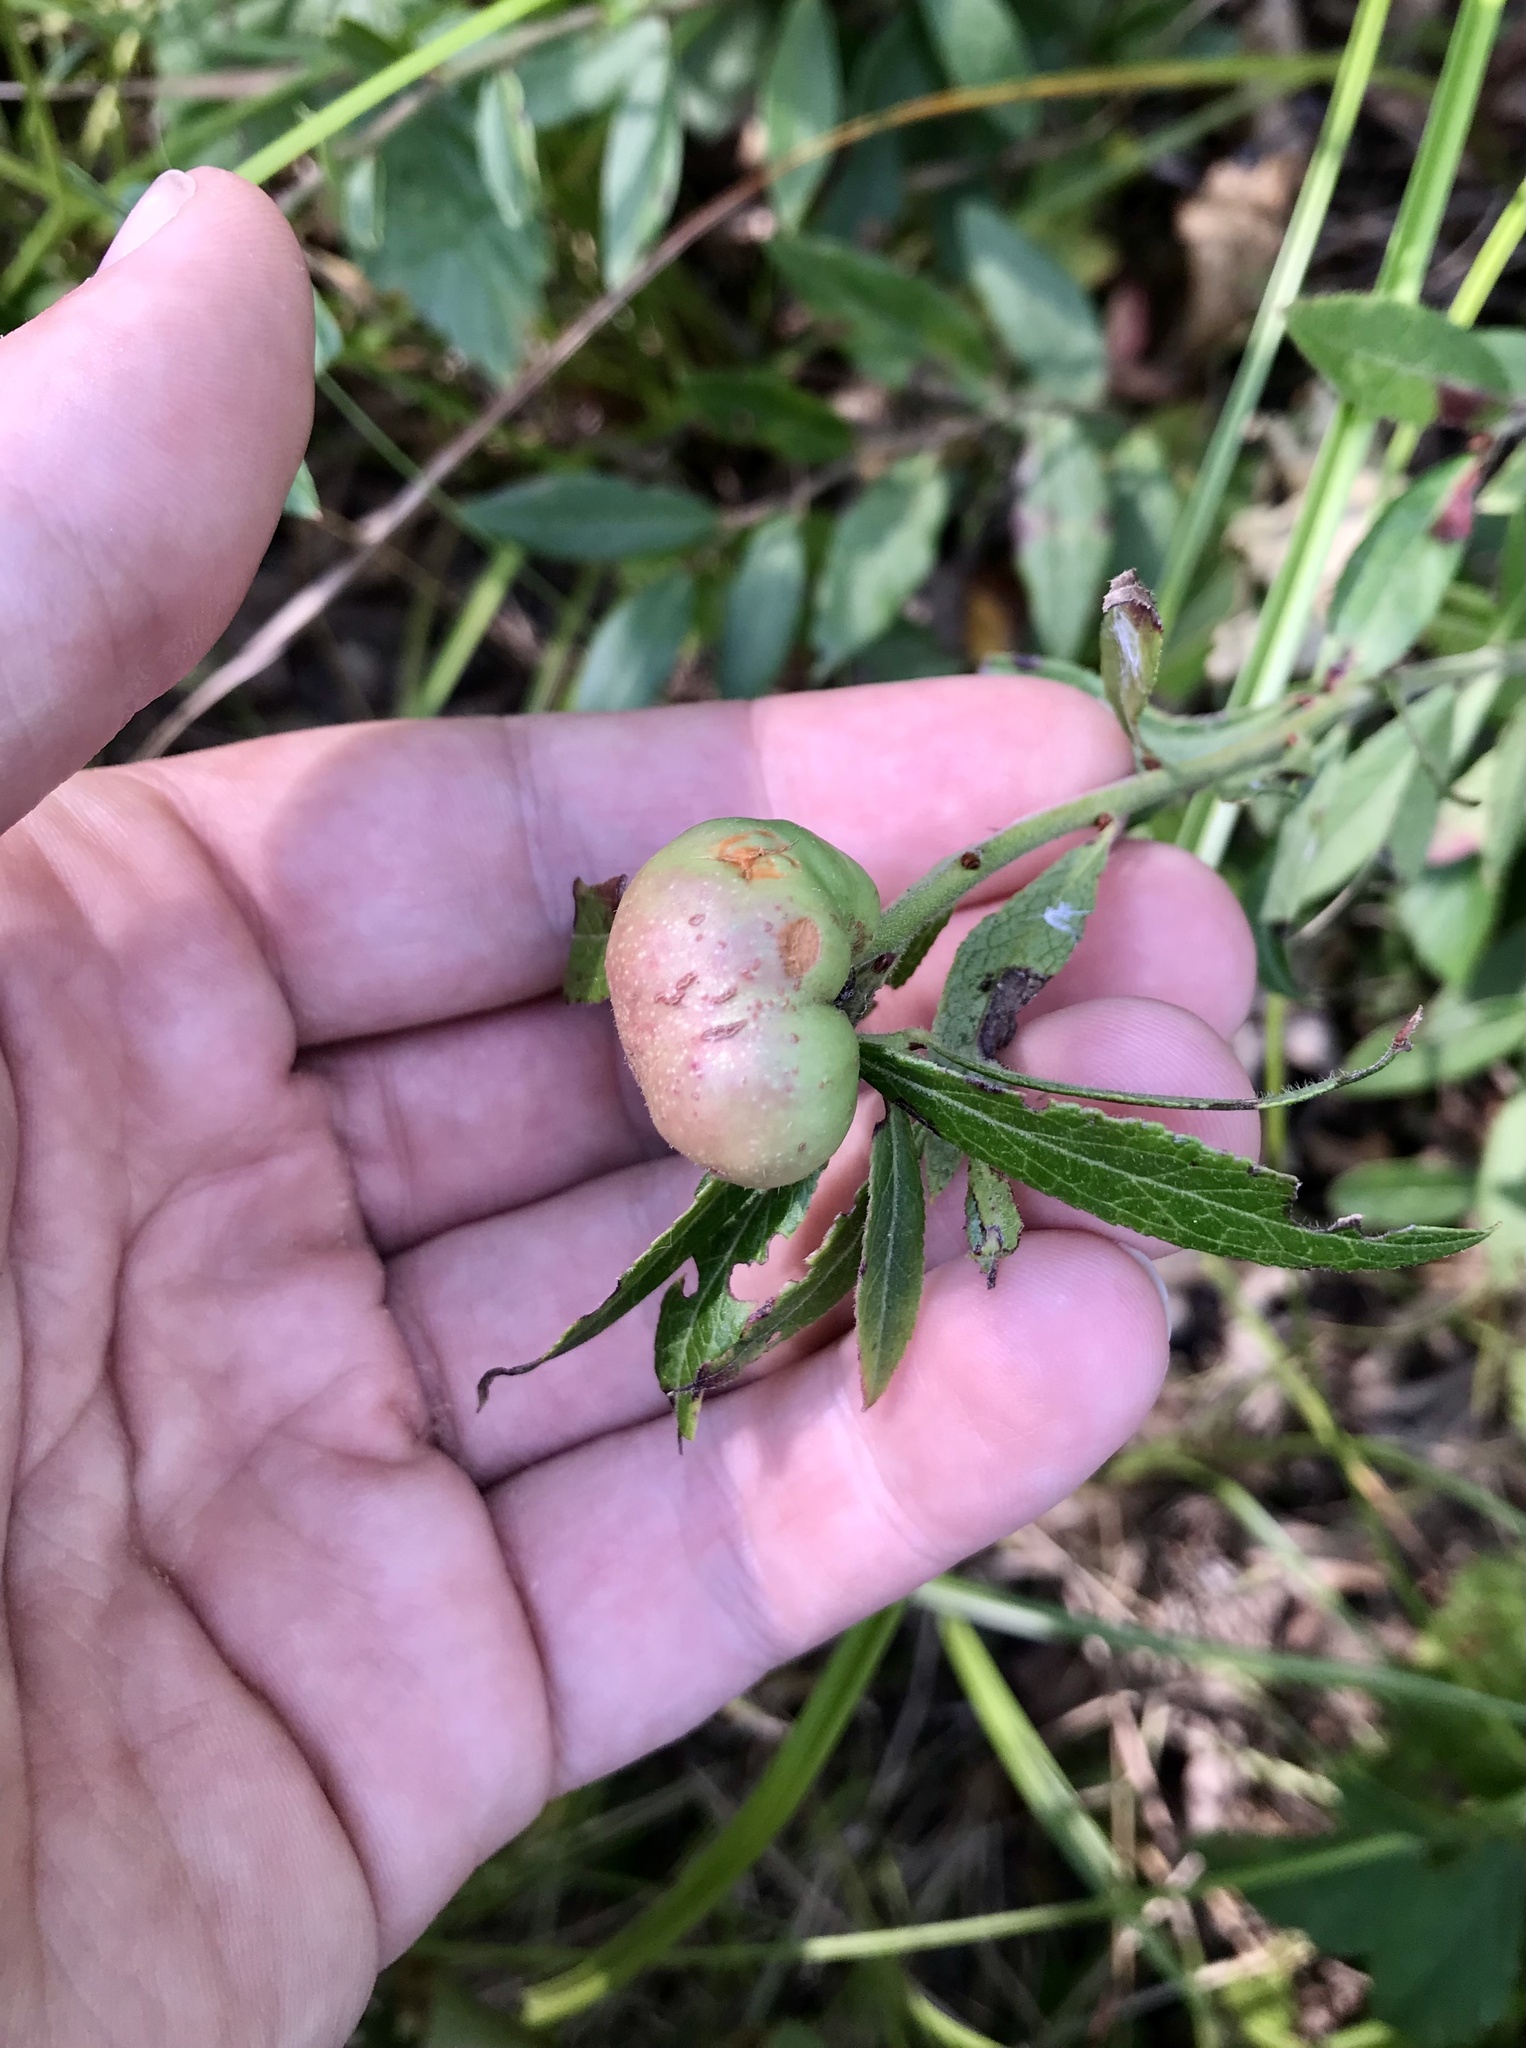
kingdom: Animalia
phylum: Arthropoda
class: Insecta
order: Hymenoptera
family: Pteromalidae
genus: Hemadas
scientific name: Hemadas nubilipennis
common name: Blueberry stem gall wasp
